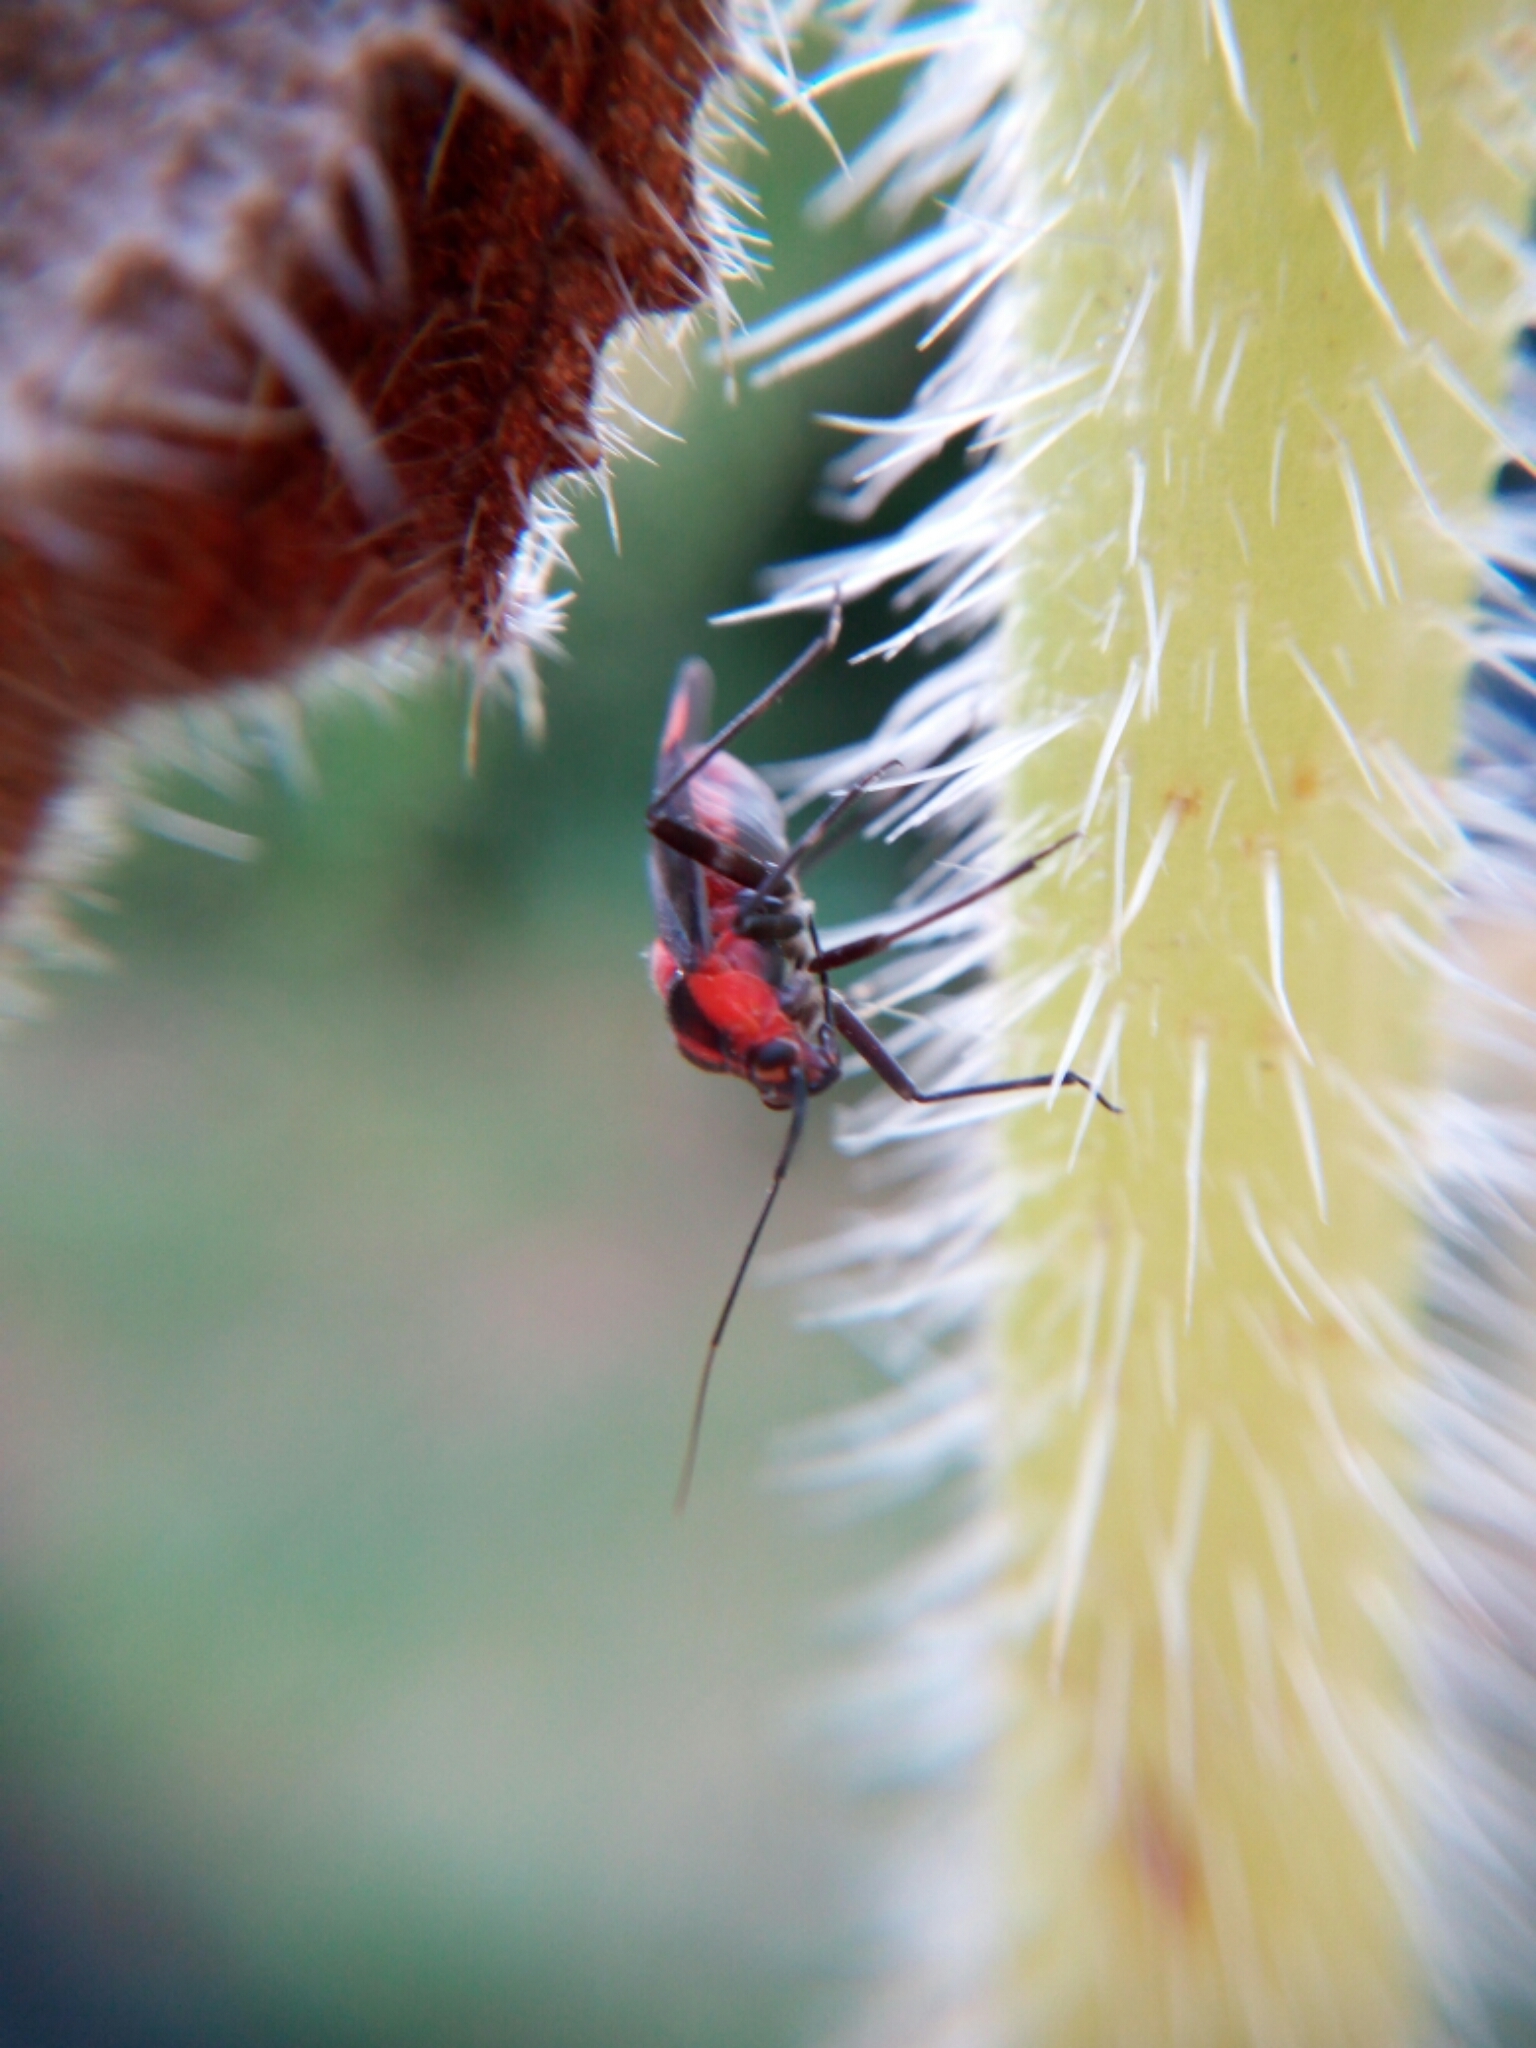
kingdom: Animalia
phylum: Arthropoda
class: Insecta
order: Hemiptera
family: Miridae
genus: Capsodes
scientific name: Capsodes mat
